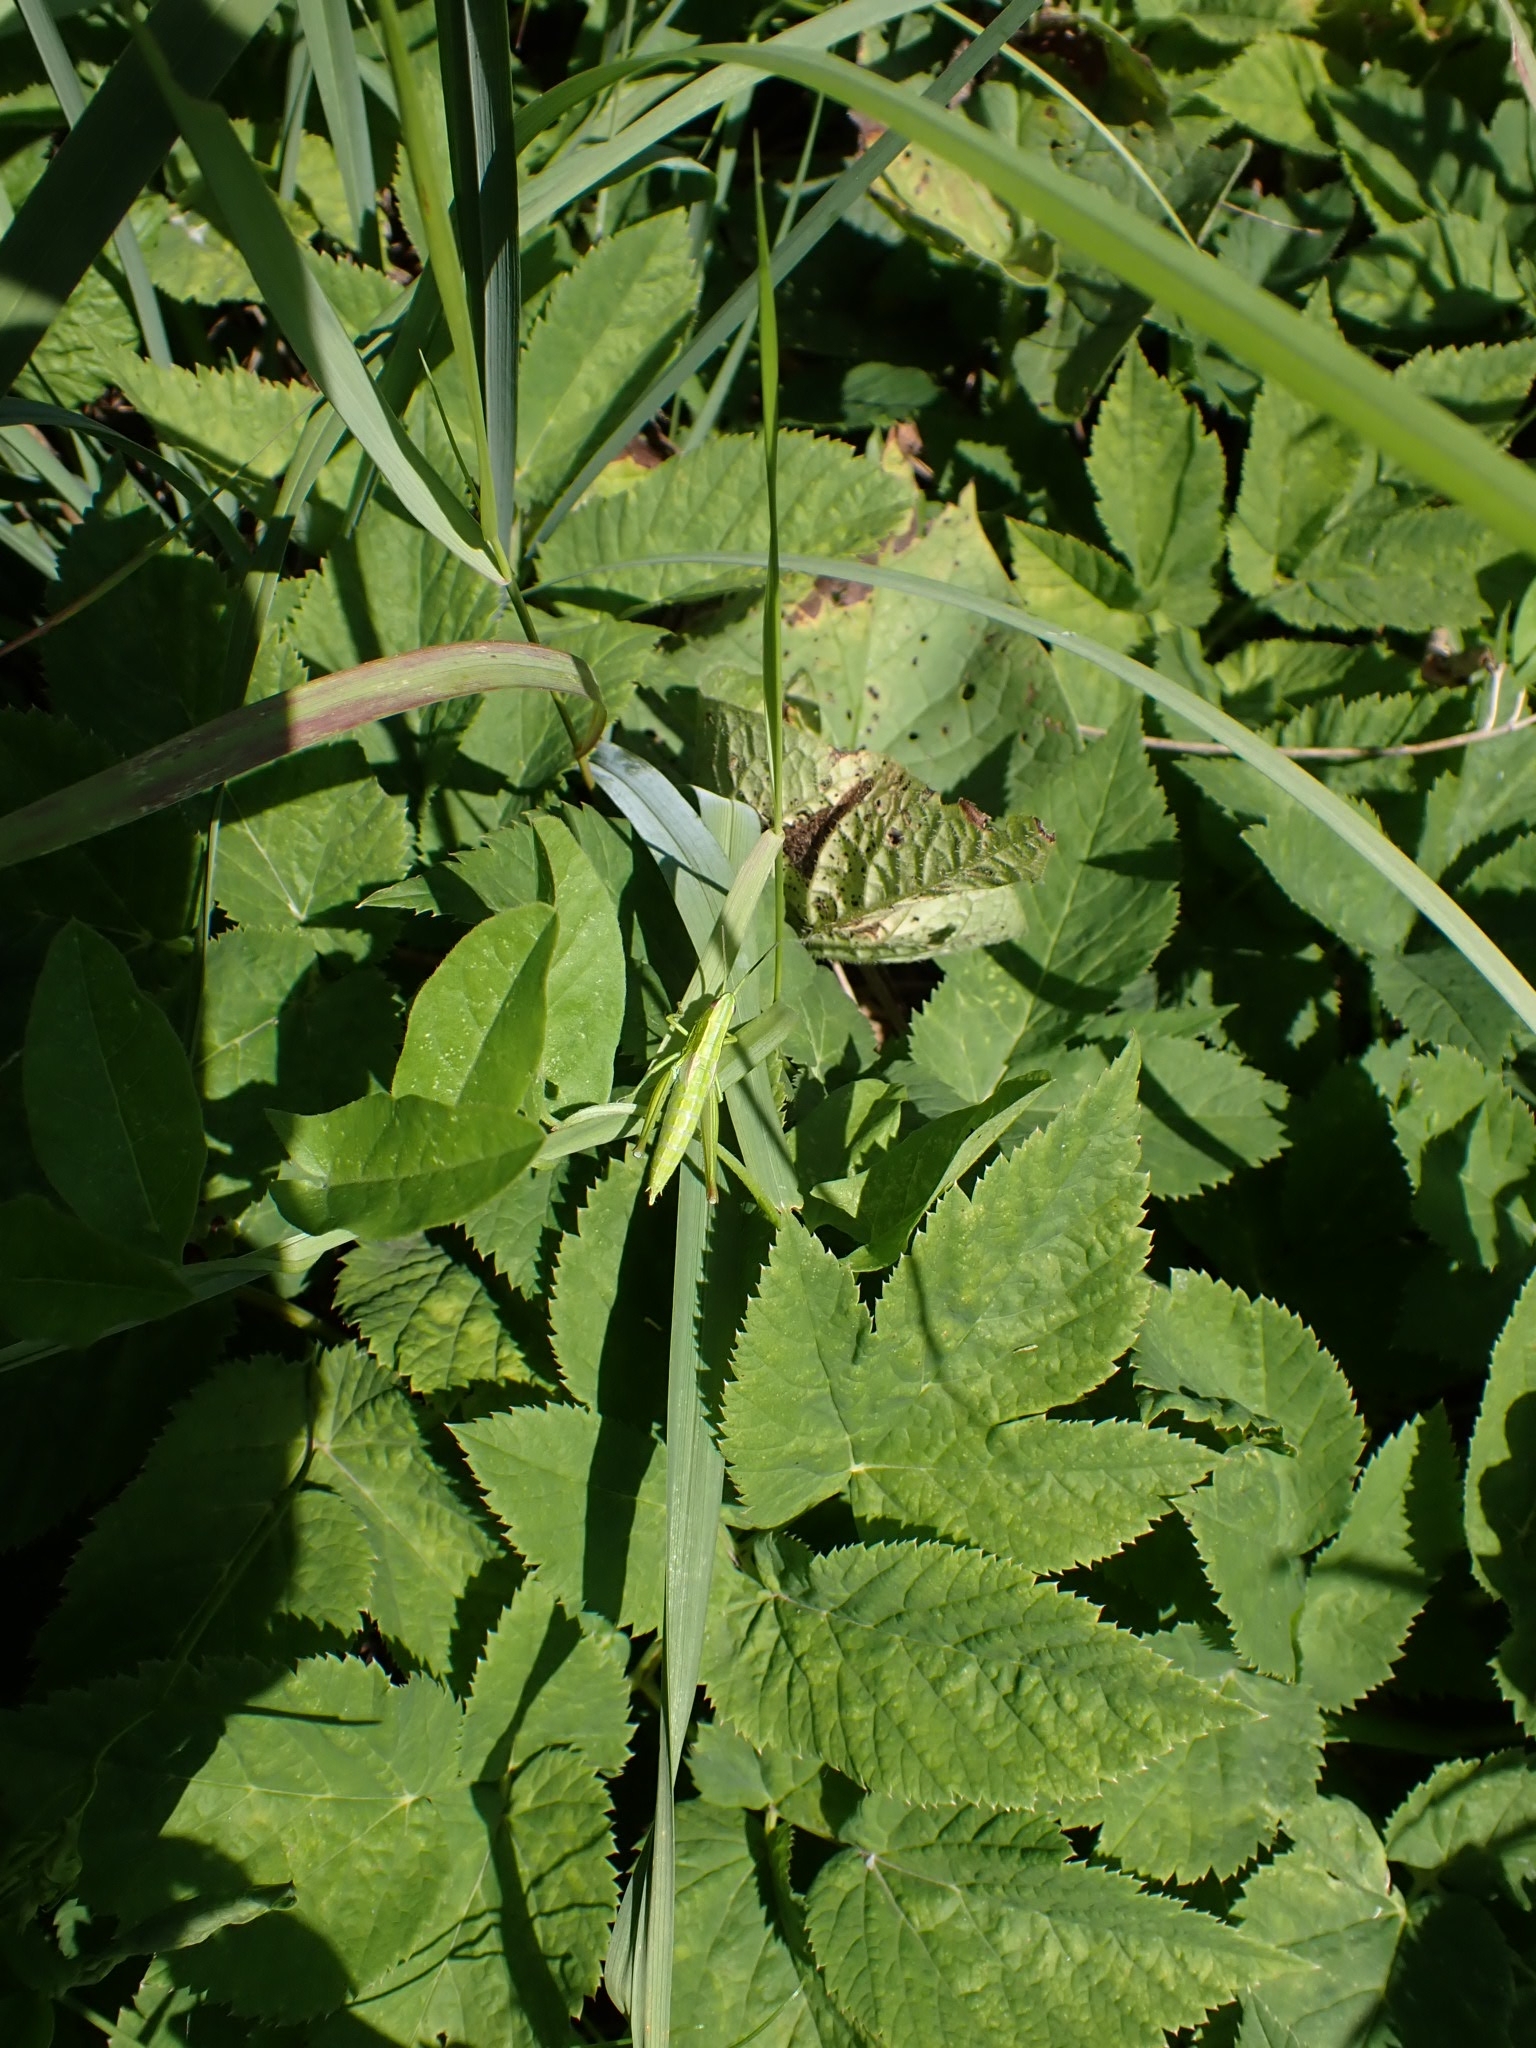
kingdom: Animalia
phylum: Arthropoda
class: Insecta
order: Orthoptera
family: Acrididae
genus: Euthystira
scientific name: Euthystira brachyptera
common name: Small gold grasshopper
